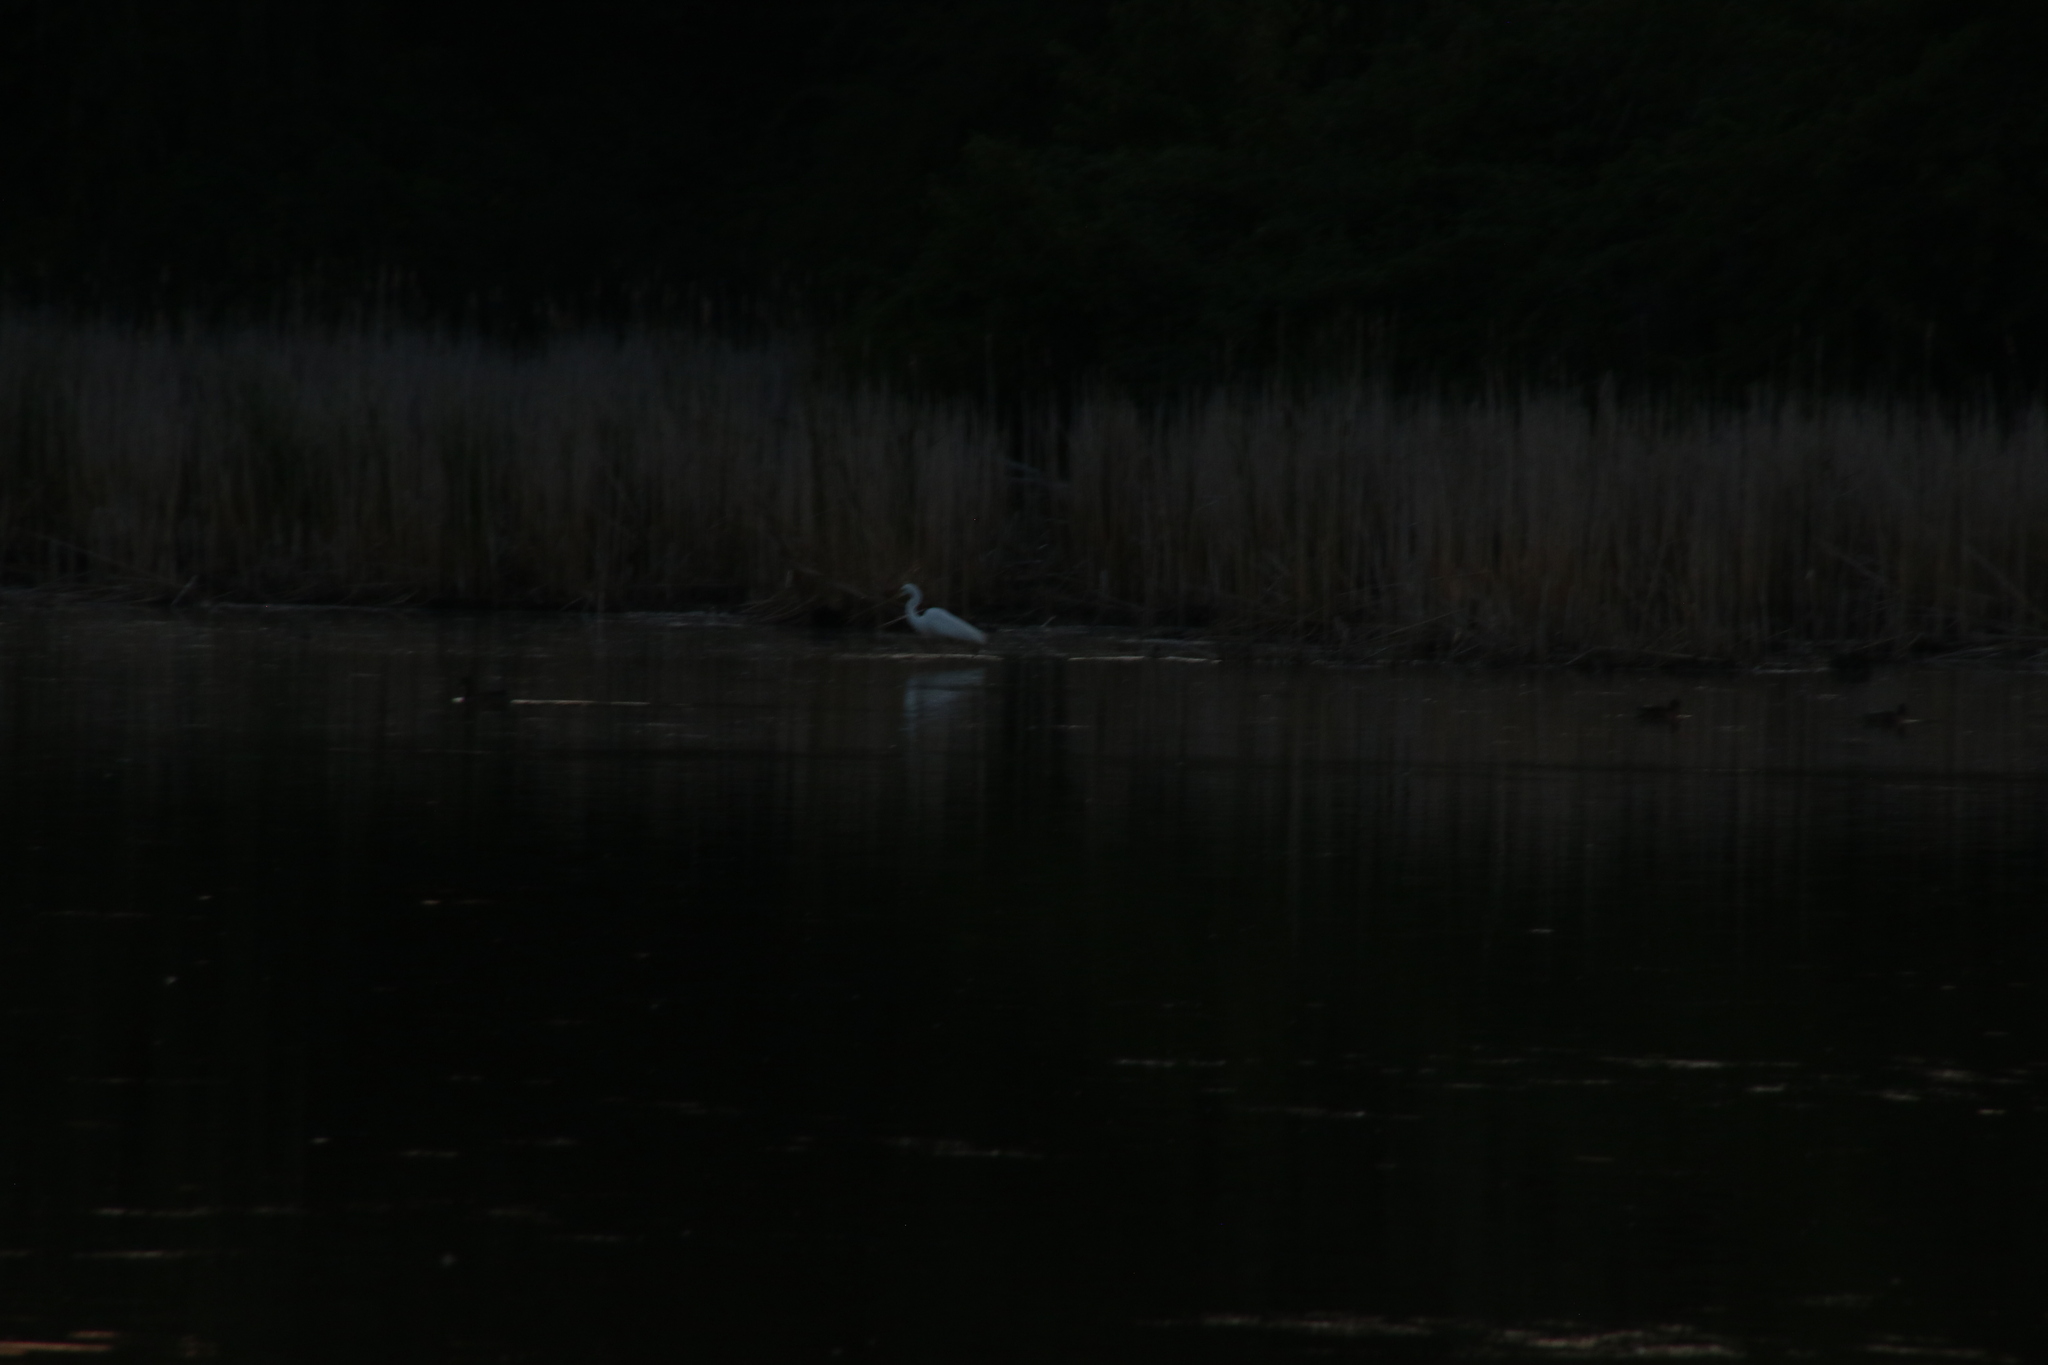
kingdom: Animalia
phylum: Chordata
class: Aves
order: Pelecaniformes
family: Ardeidae
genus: Ardea
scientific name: Ardea alba
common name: Great egret
